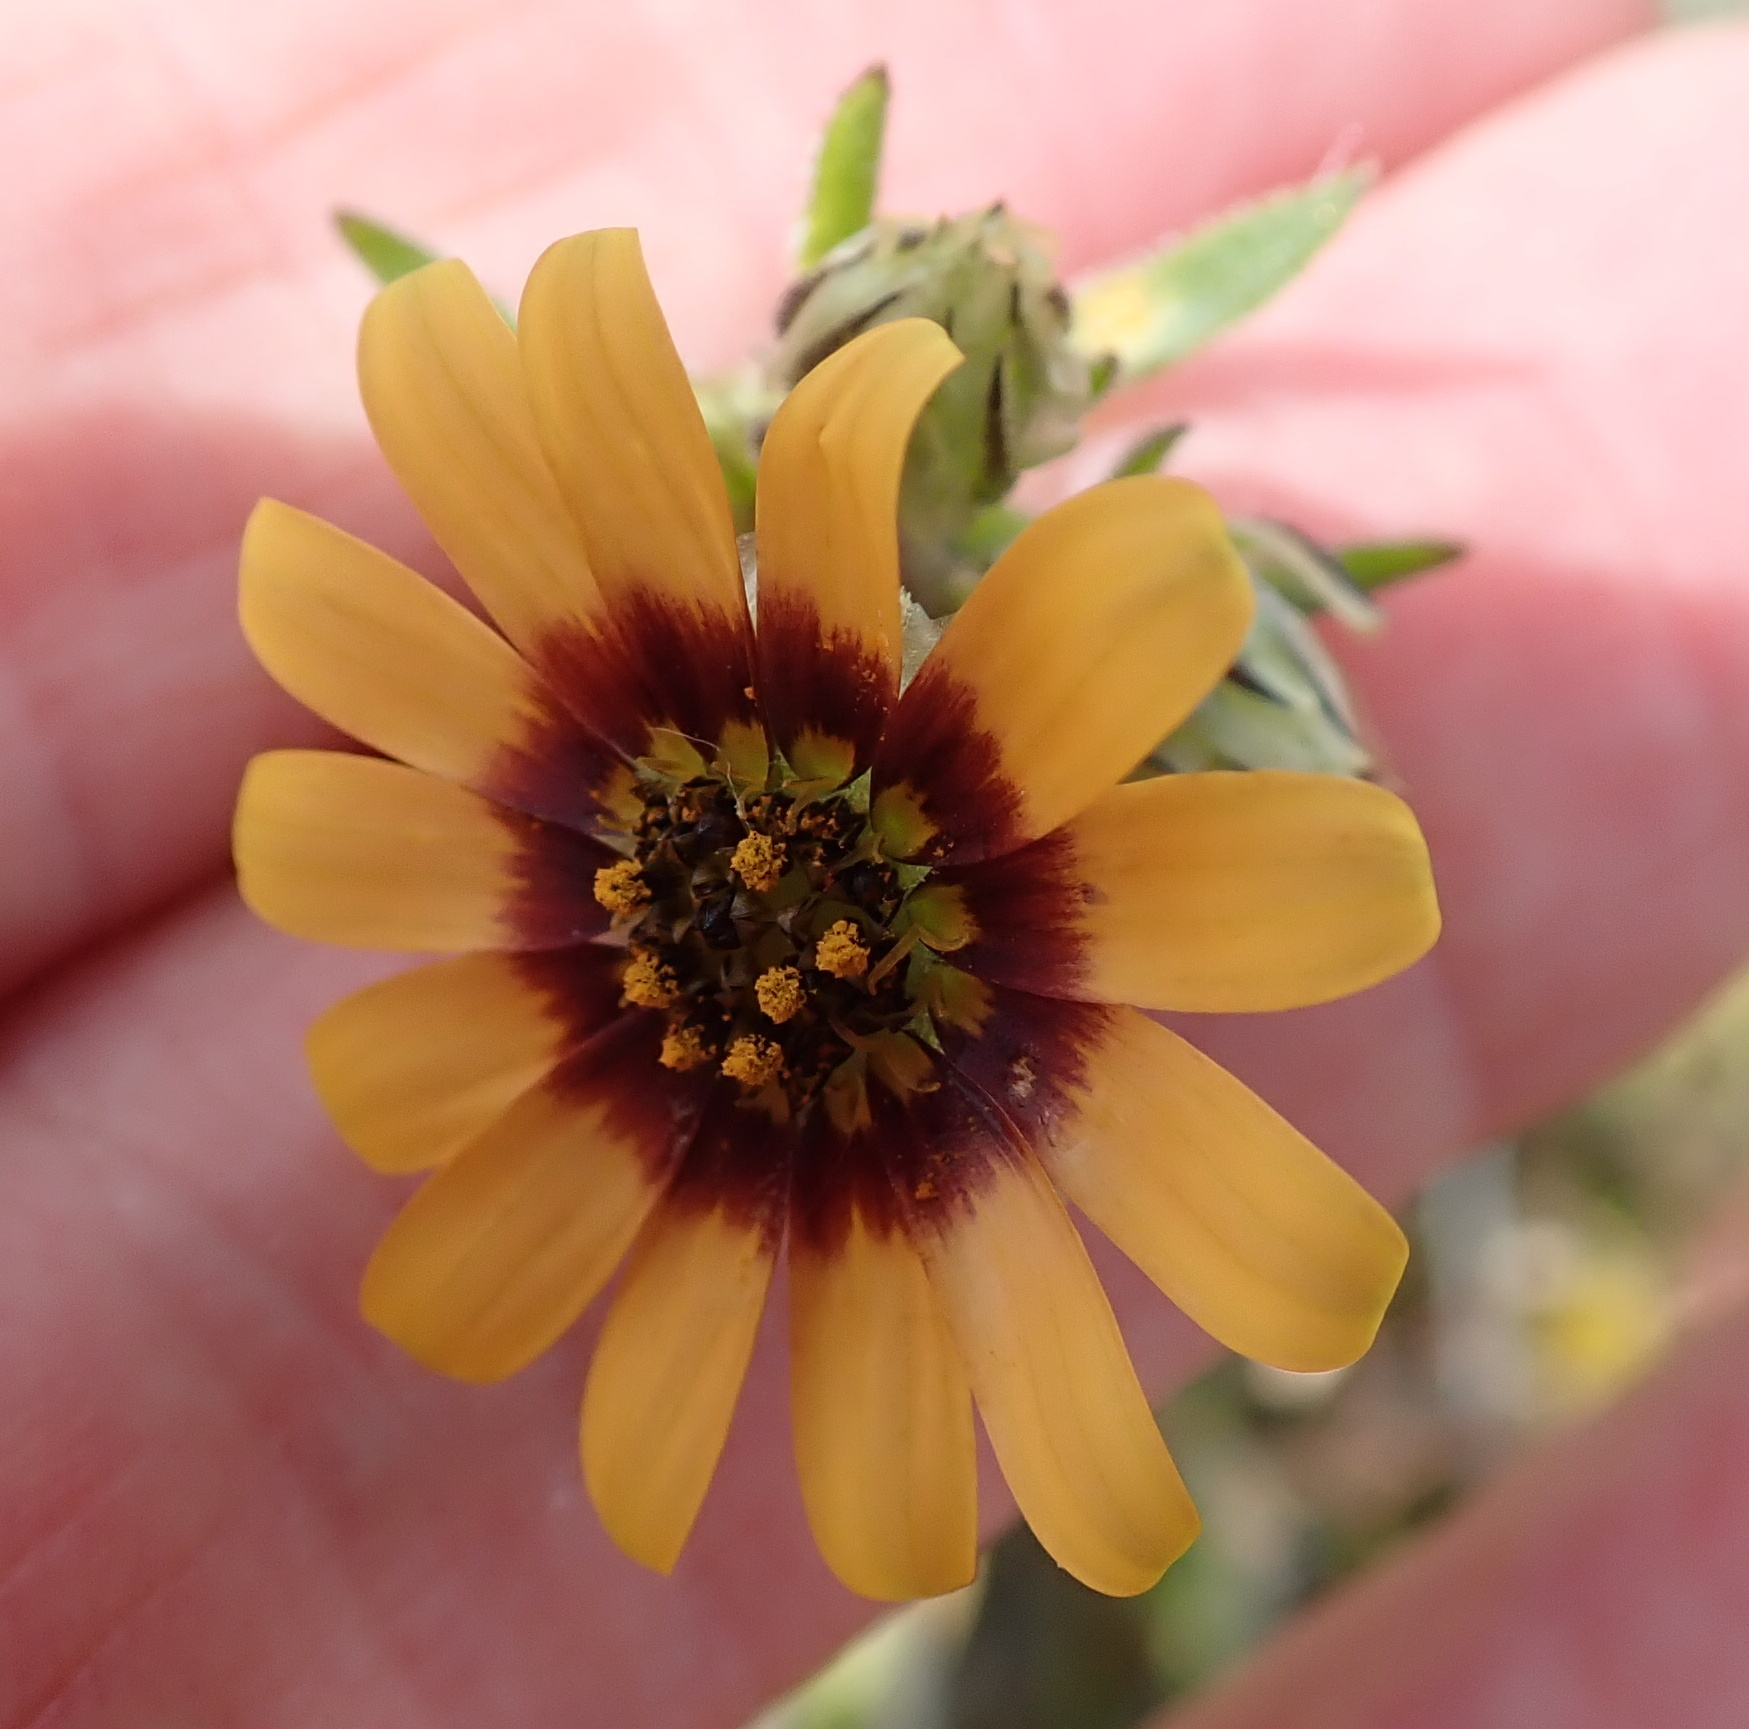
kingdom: Plantae
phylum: Tracheophyta
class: Magnoliopsida
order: Asterales
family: Asteraceae
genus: Osteospermum
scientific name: Osteospermum monstrosum
